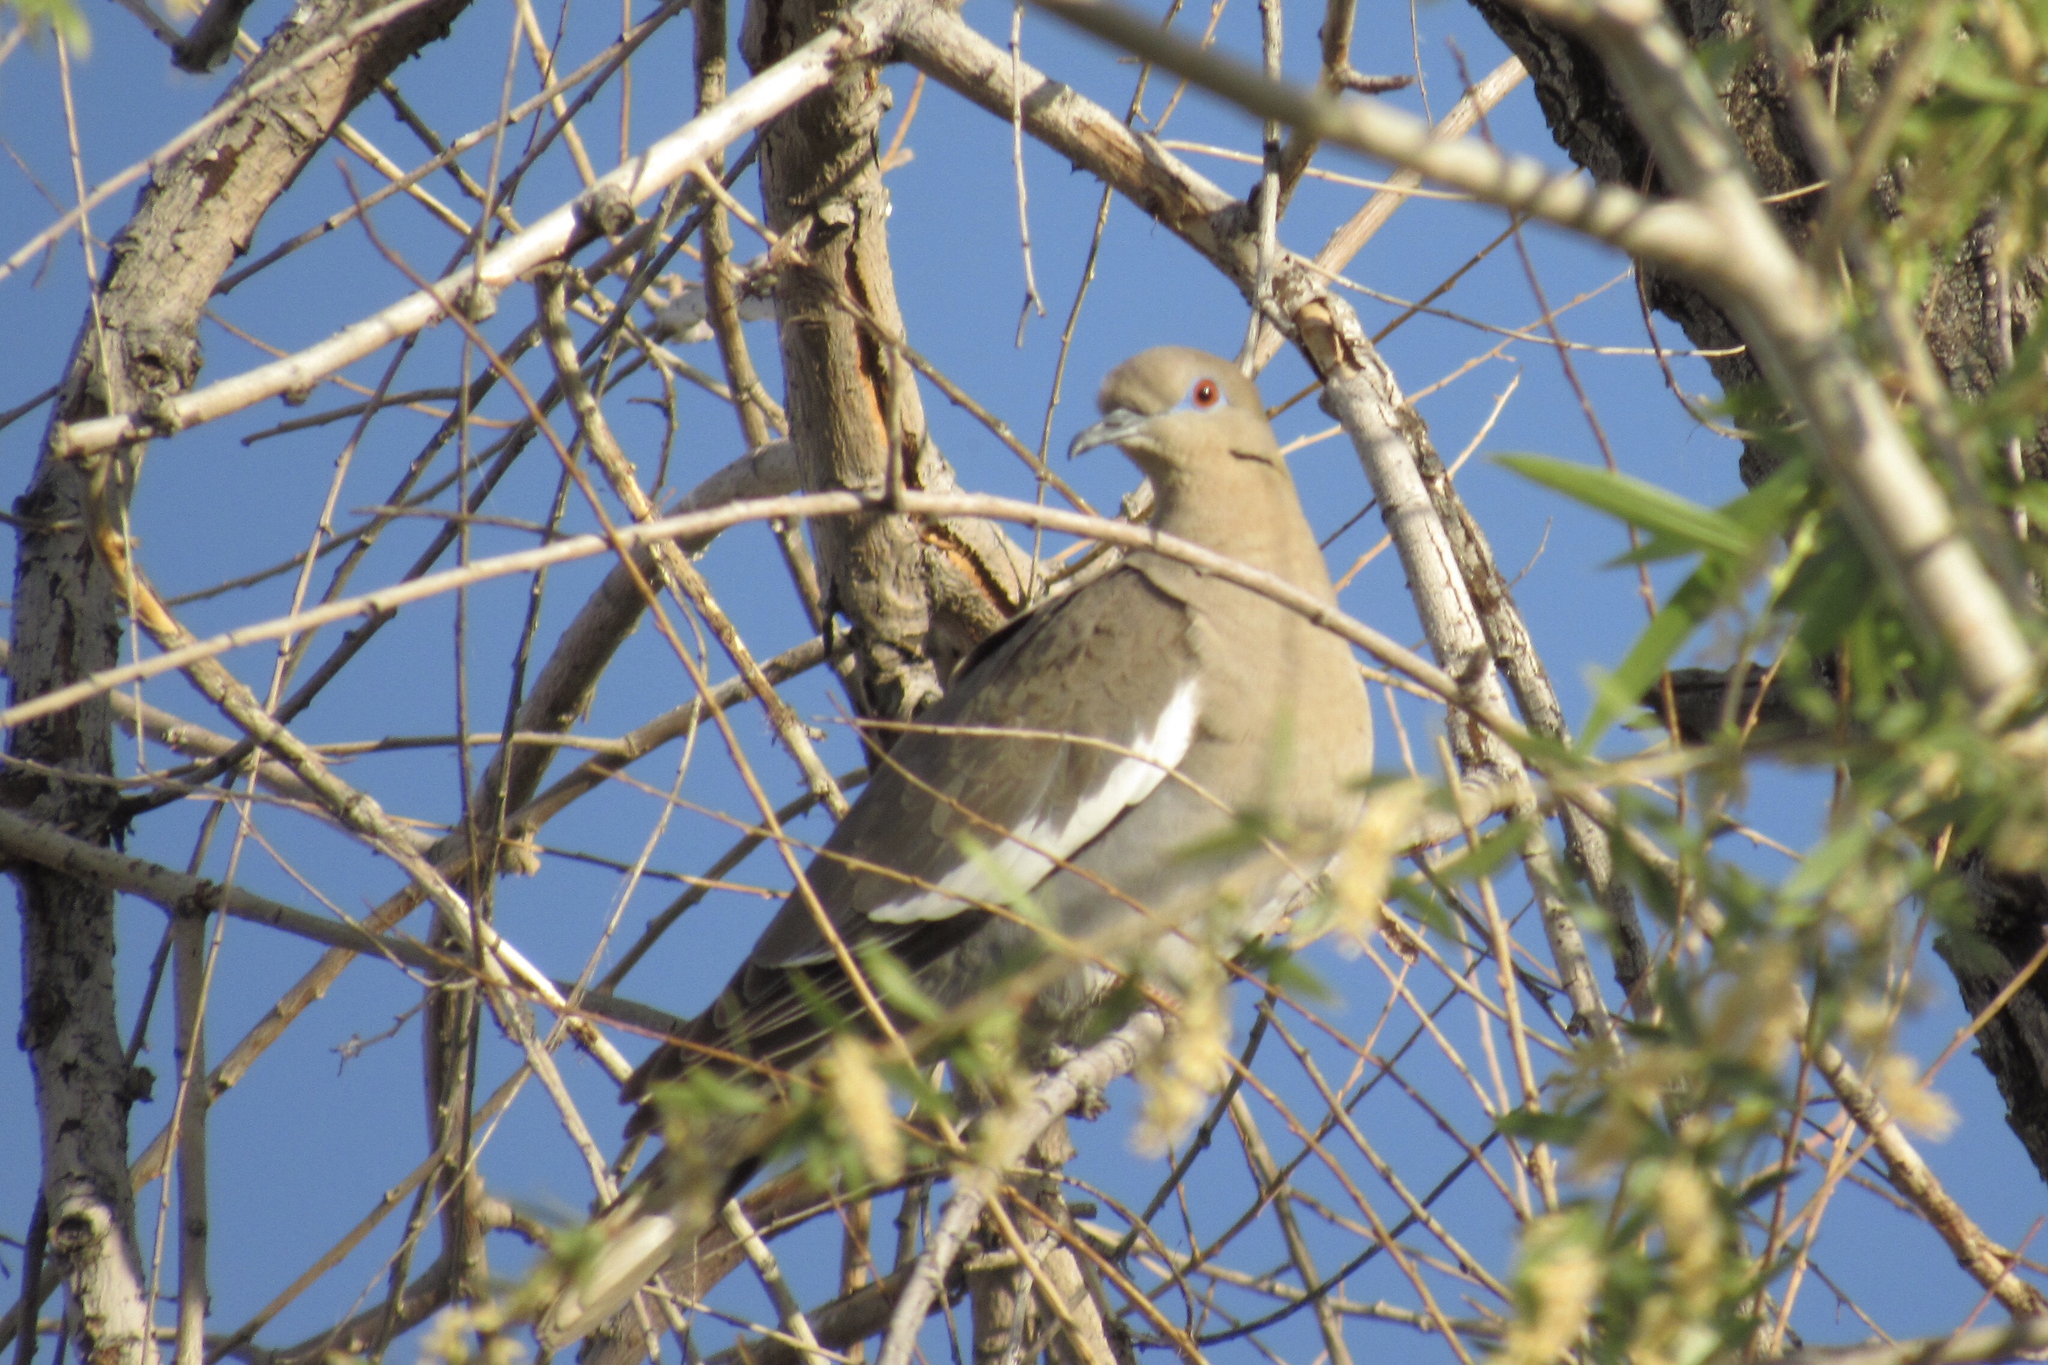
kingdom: Animalia
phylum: Chordata
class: Aves
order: Columbiformes
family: Columbidae
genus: Zenaida
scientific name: Zenaida asiatica
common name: White-winged dove
